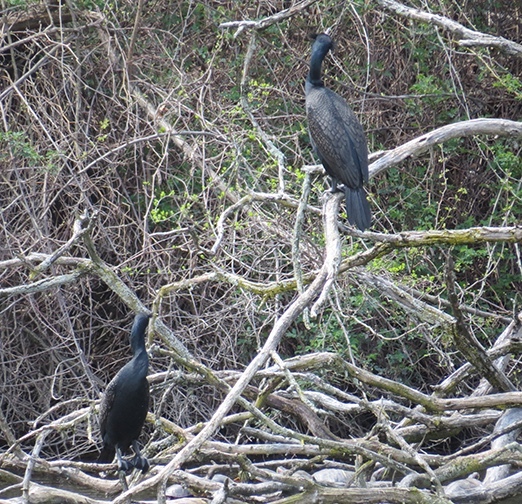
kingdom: Animalia
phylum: Chordata
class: Aves
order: Suliformes
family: Phalacrocoracidae
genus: Phalacrocorax
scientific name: Phalacrocorax auritus
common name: Double-crested cormorant
